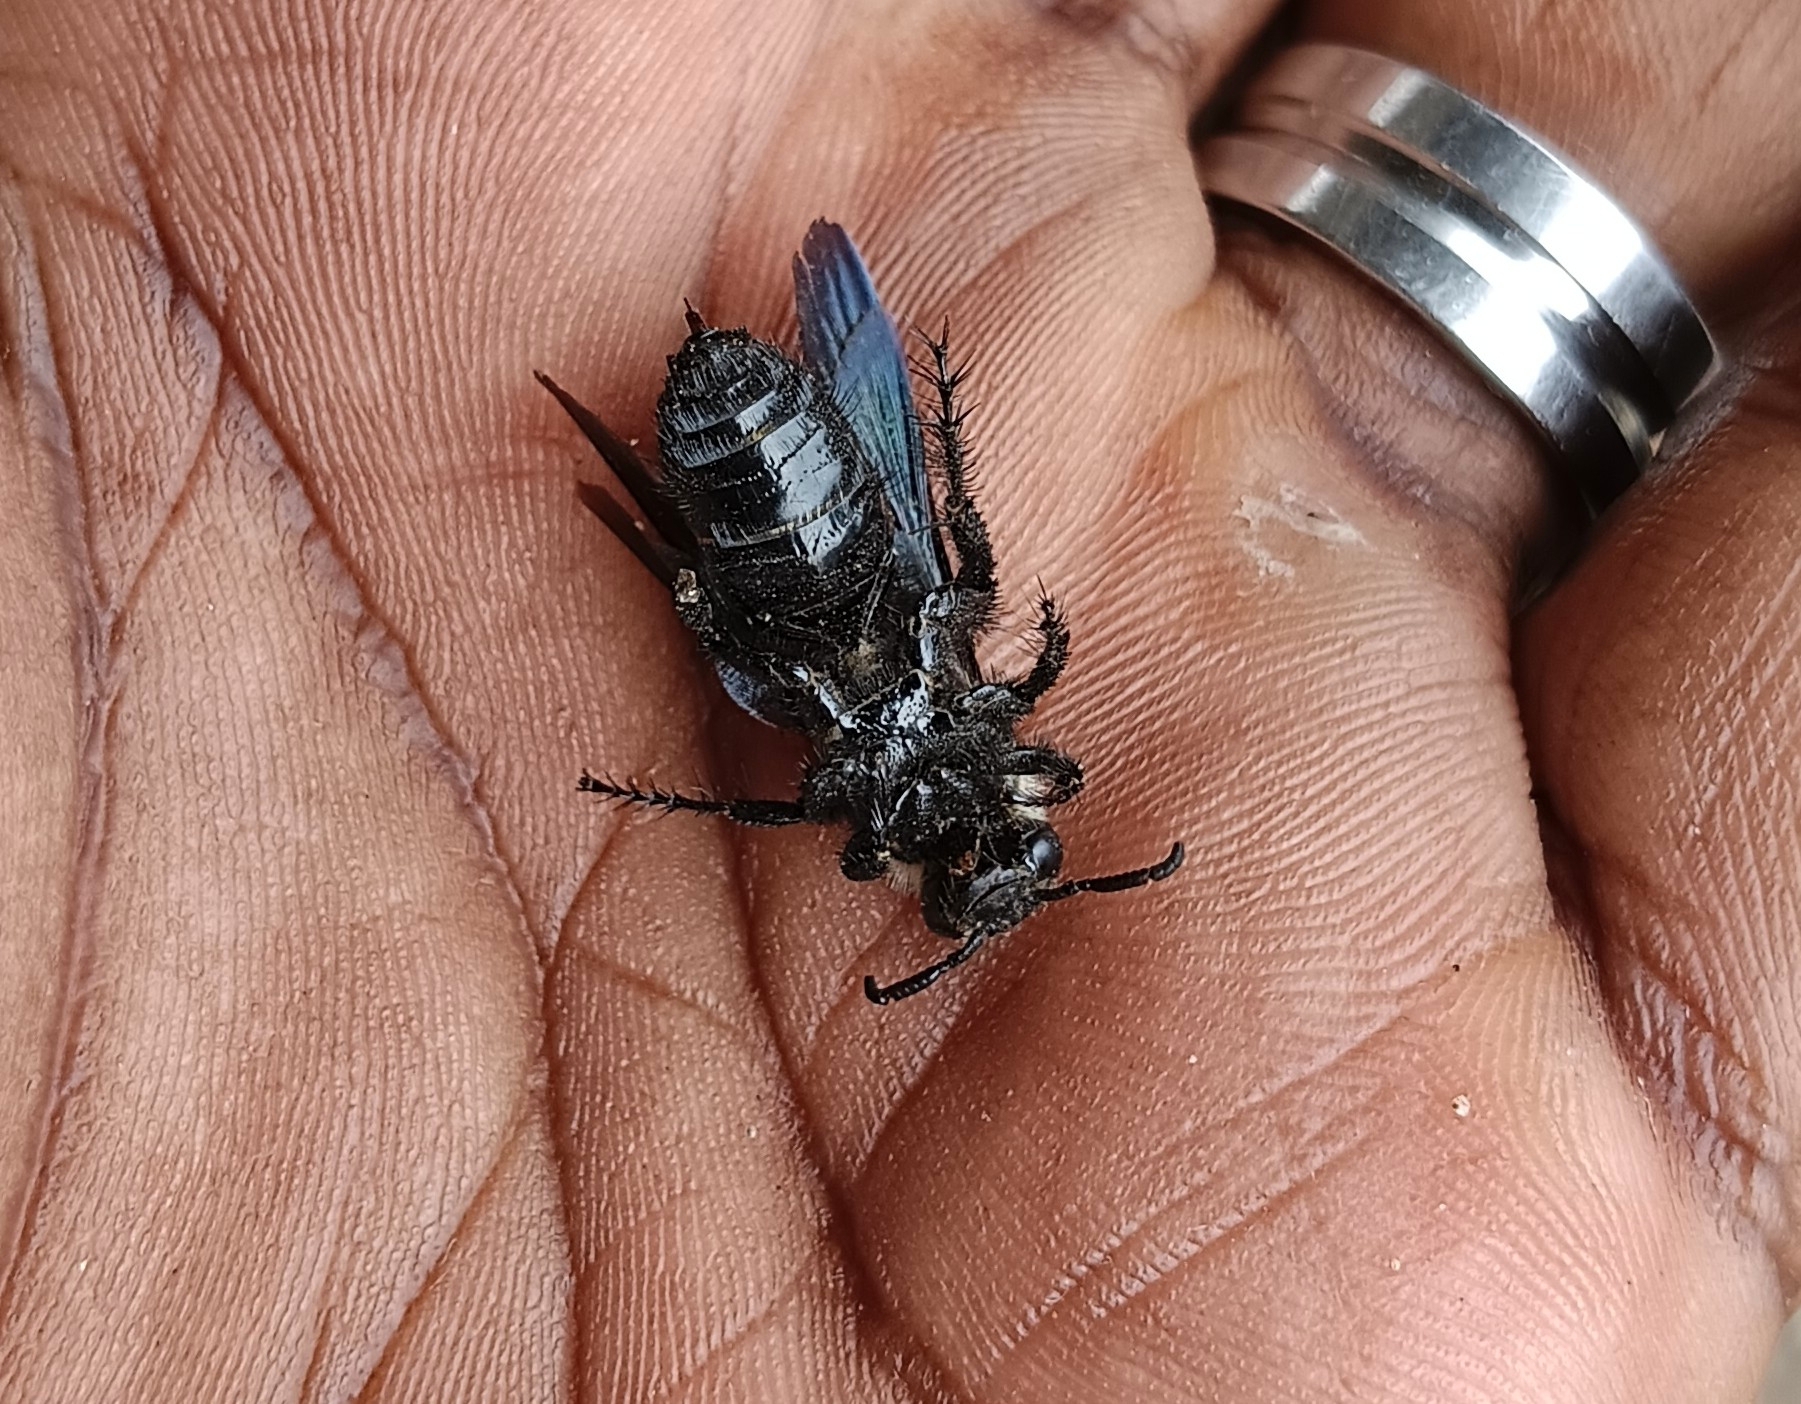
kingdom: Animalia
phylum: Arthropoda
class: Insecta
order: Hymenoptera
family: Scoliidae
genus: Campsomeriella
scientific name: Campsomeriella collaris
